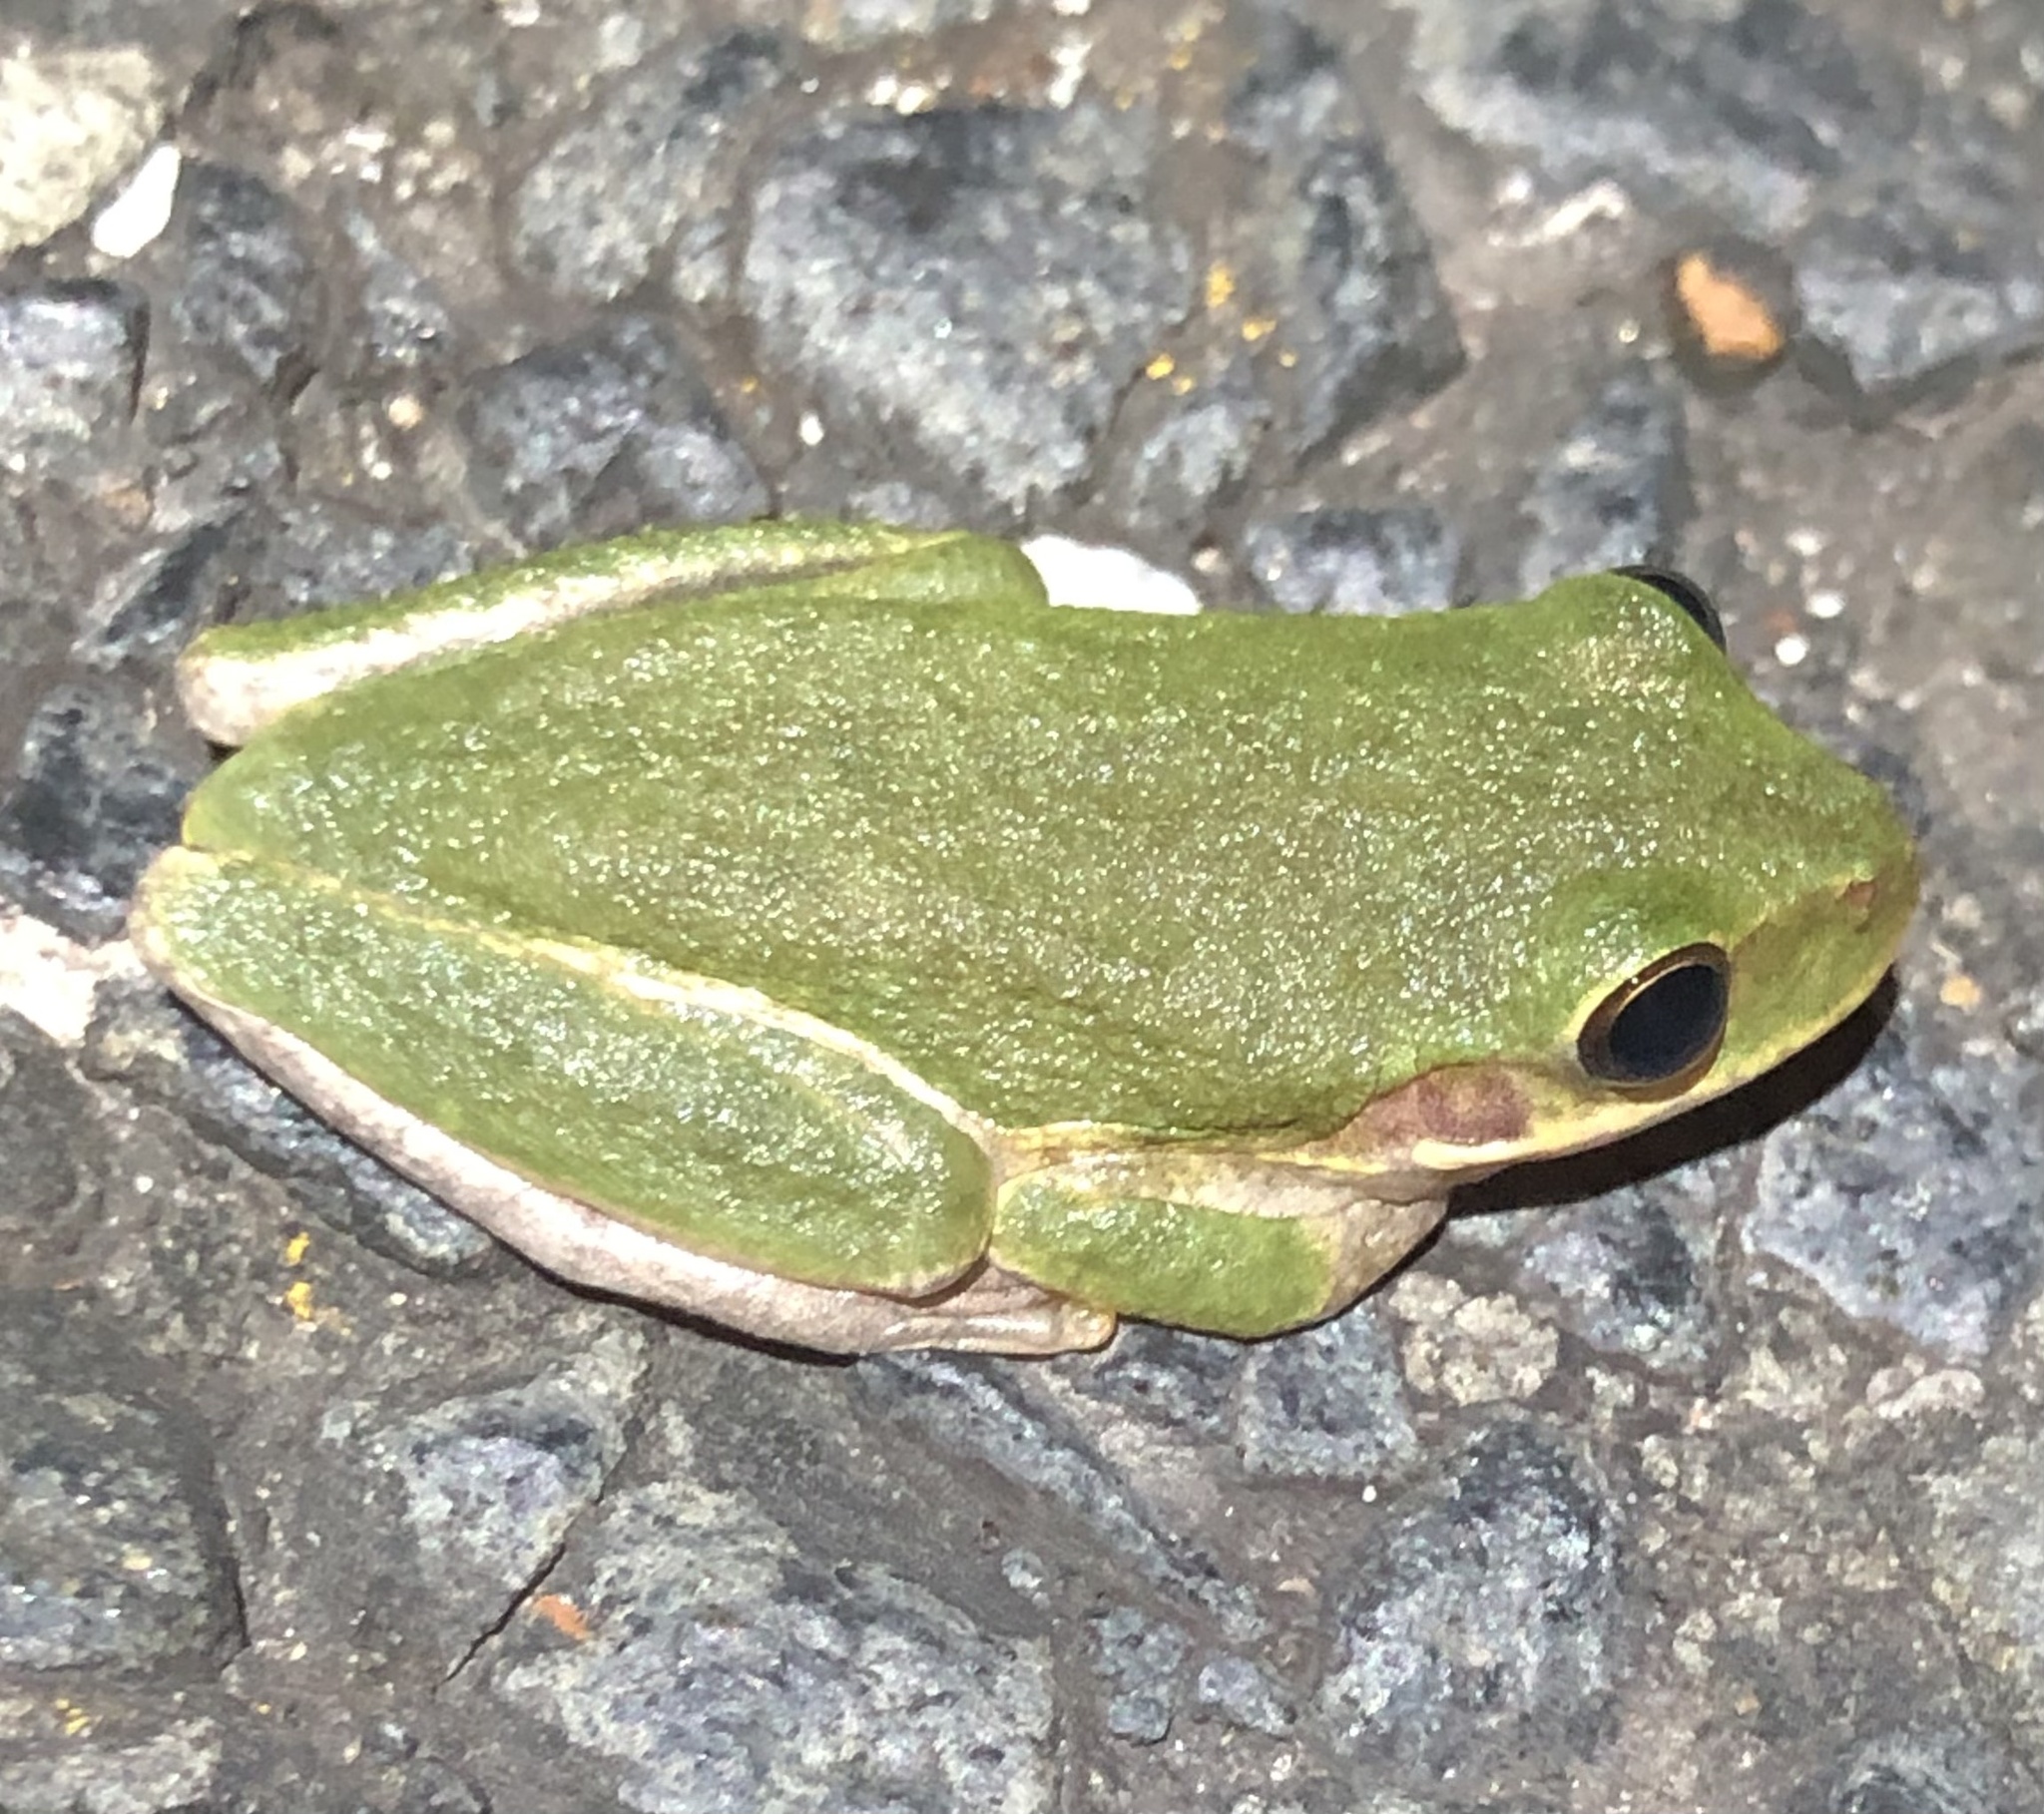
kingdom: Animalia
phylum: Chordata
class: Amphibia
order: Anura
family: Hylidae
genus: Dryophytes
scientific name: Dryophytes squirellus
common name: Squirrel treefrog
